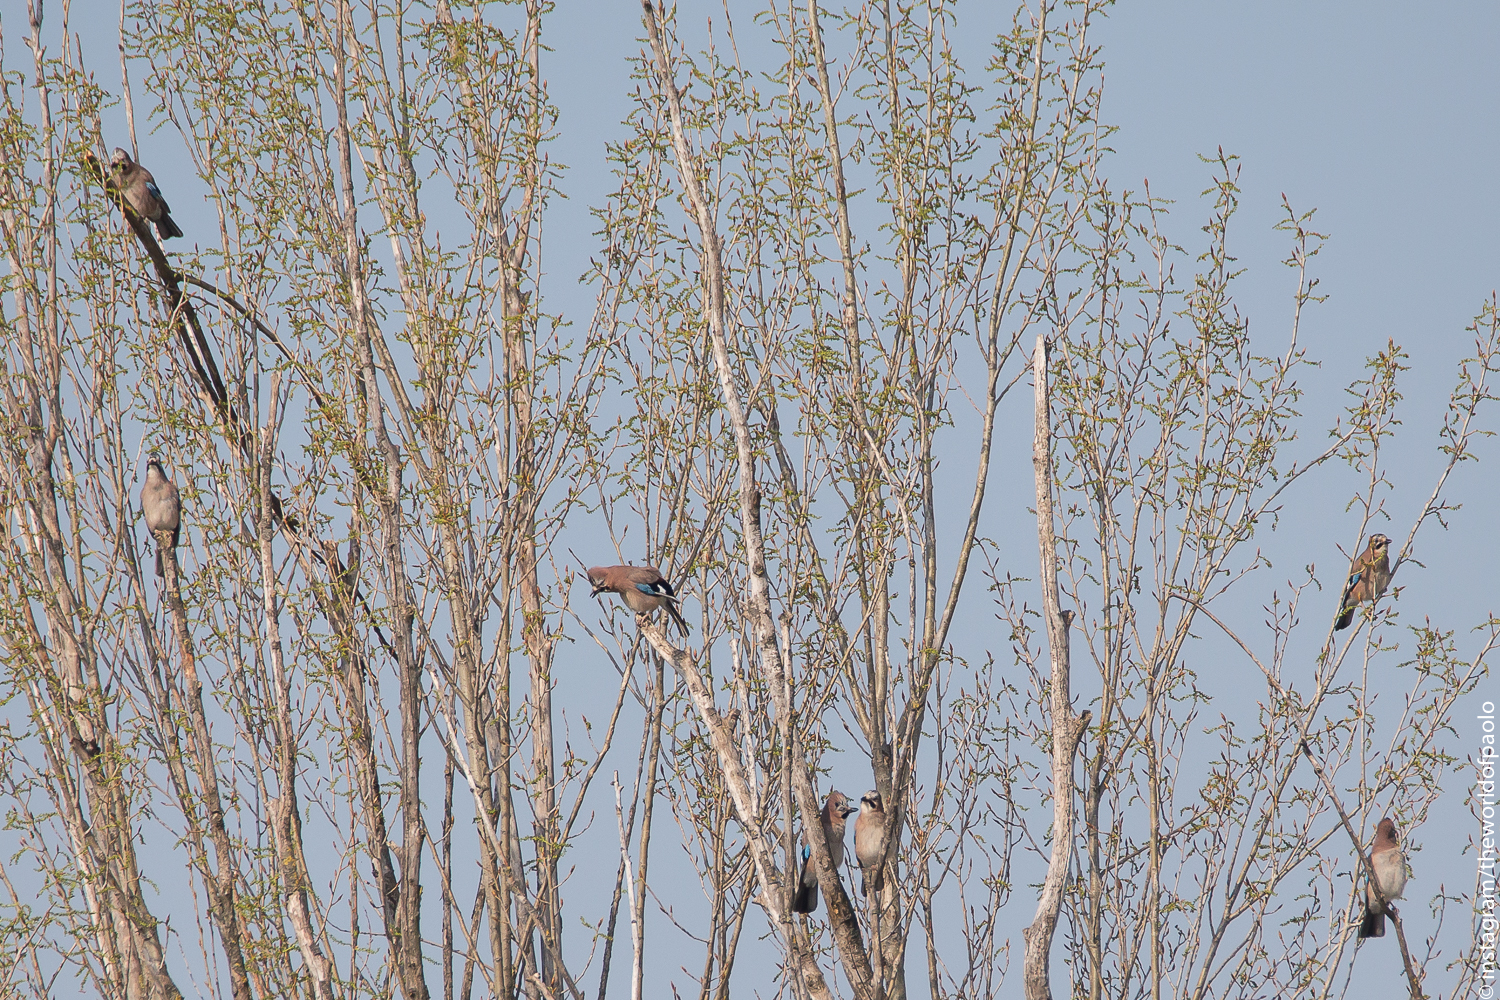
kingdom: Animalia
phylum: Chordata
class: Aves
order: Passeriformes
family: Corvidae
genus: Garrulus
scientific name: Garrulus glandarius
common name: Eurasian jay
